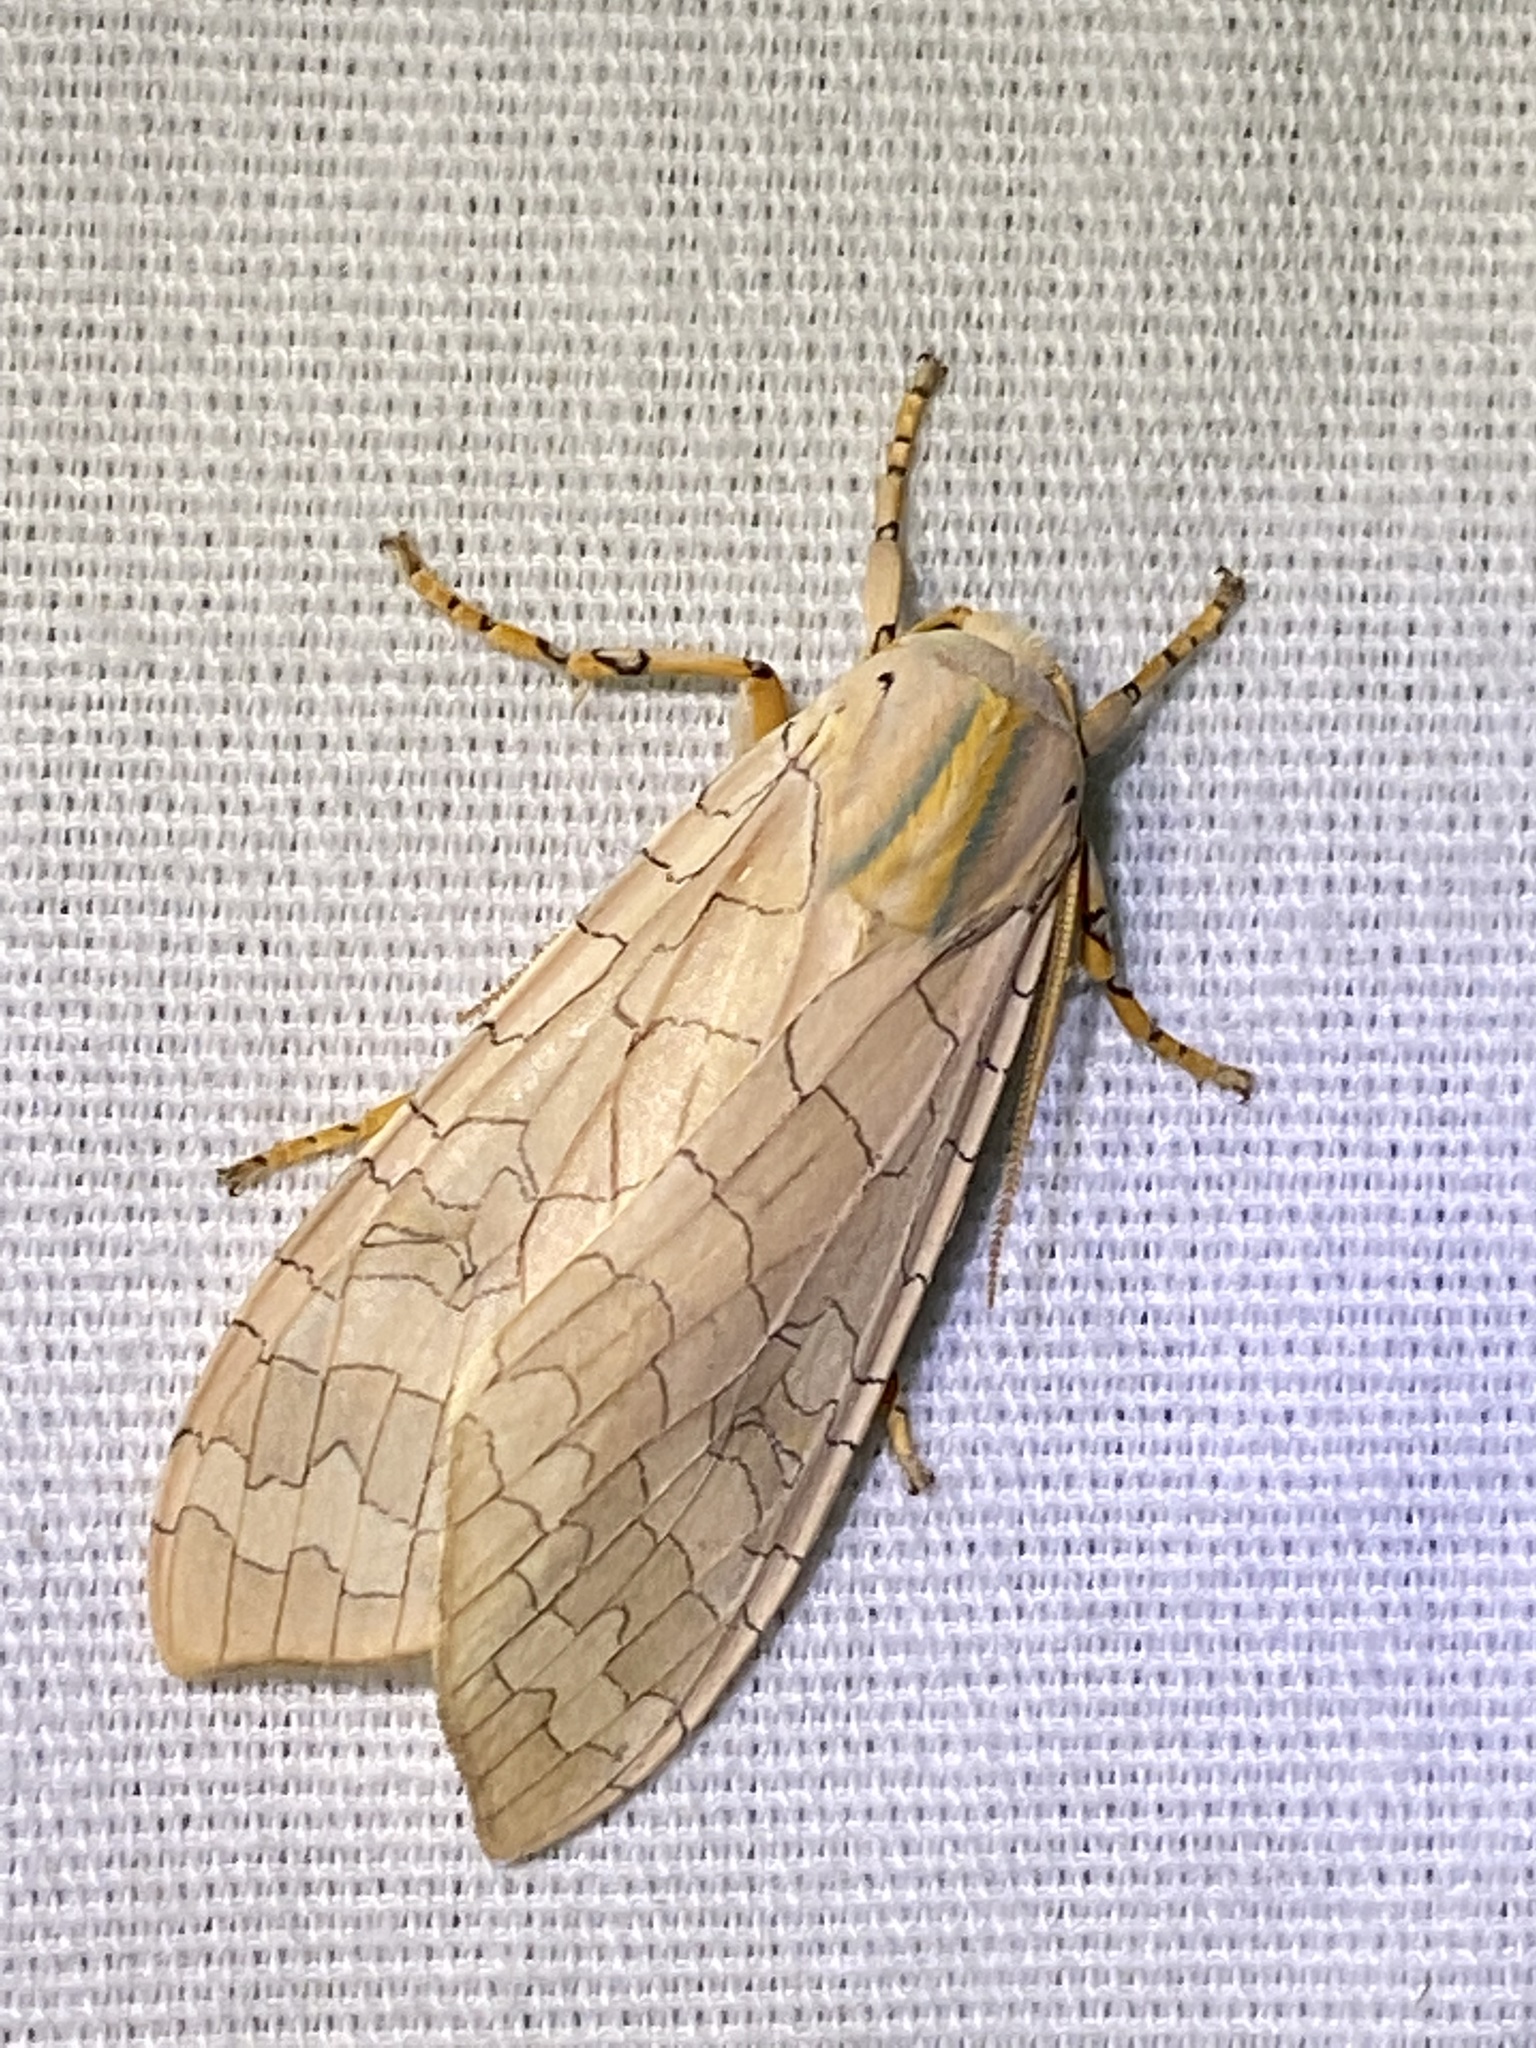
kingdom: Animalia
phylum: Arthropoda
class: Insecta
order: Lepidoptera
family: Erebidae
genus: Halysidota
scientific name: Halysidota
